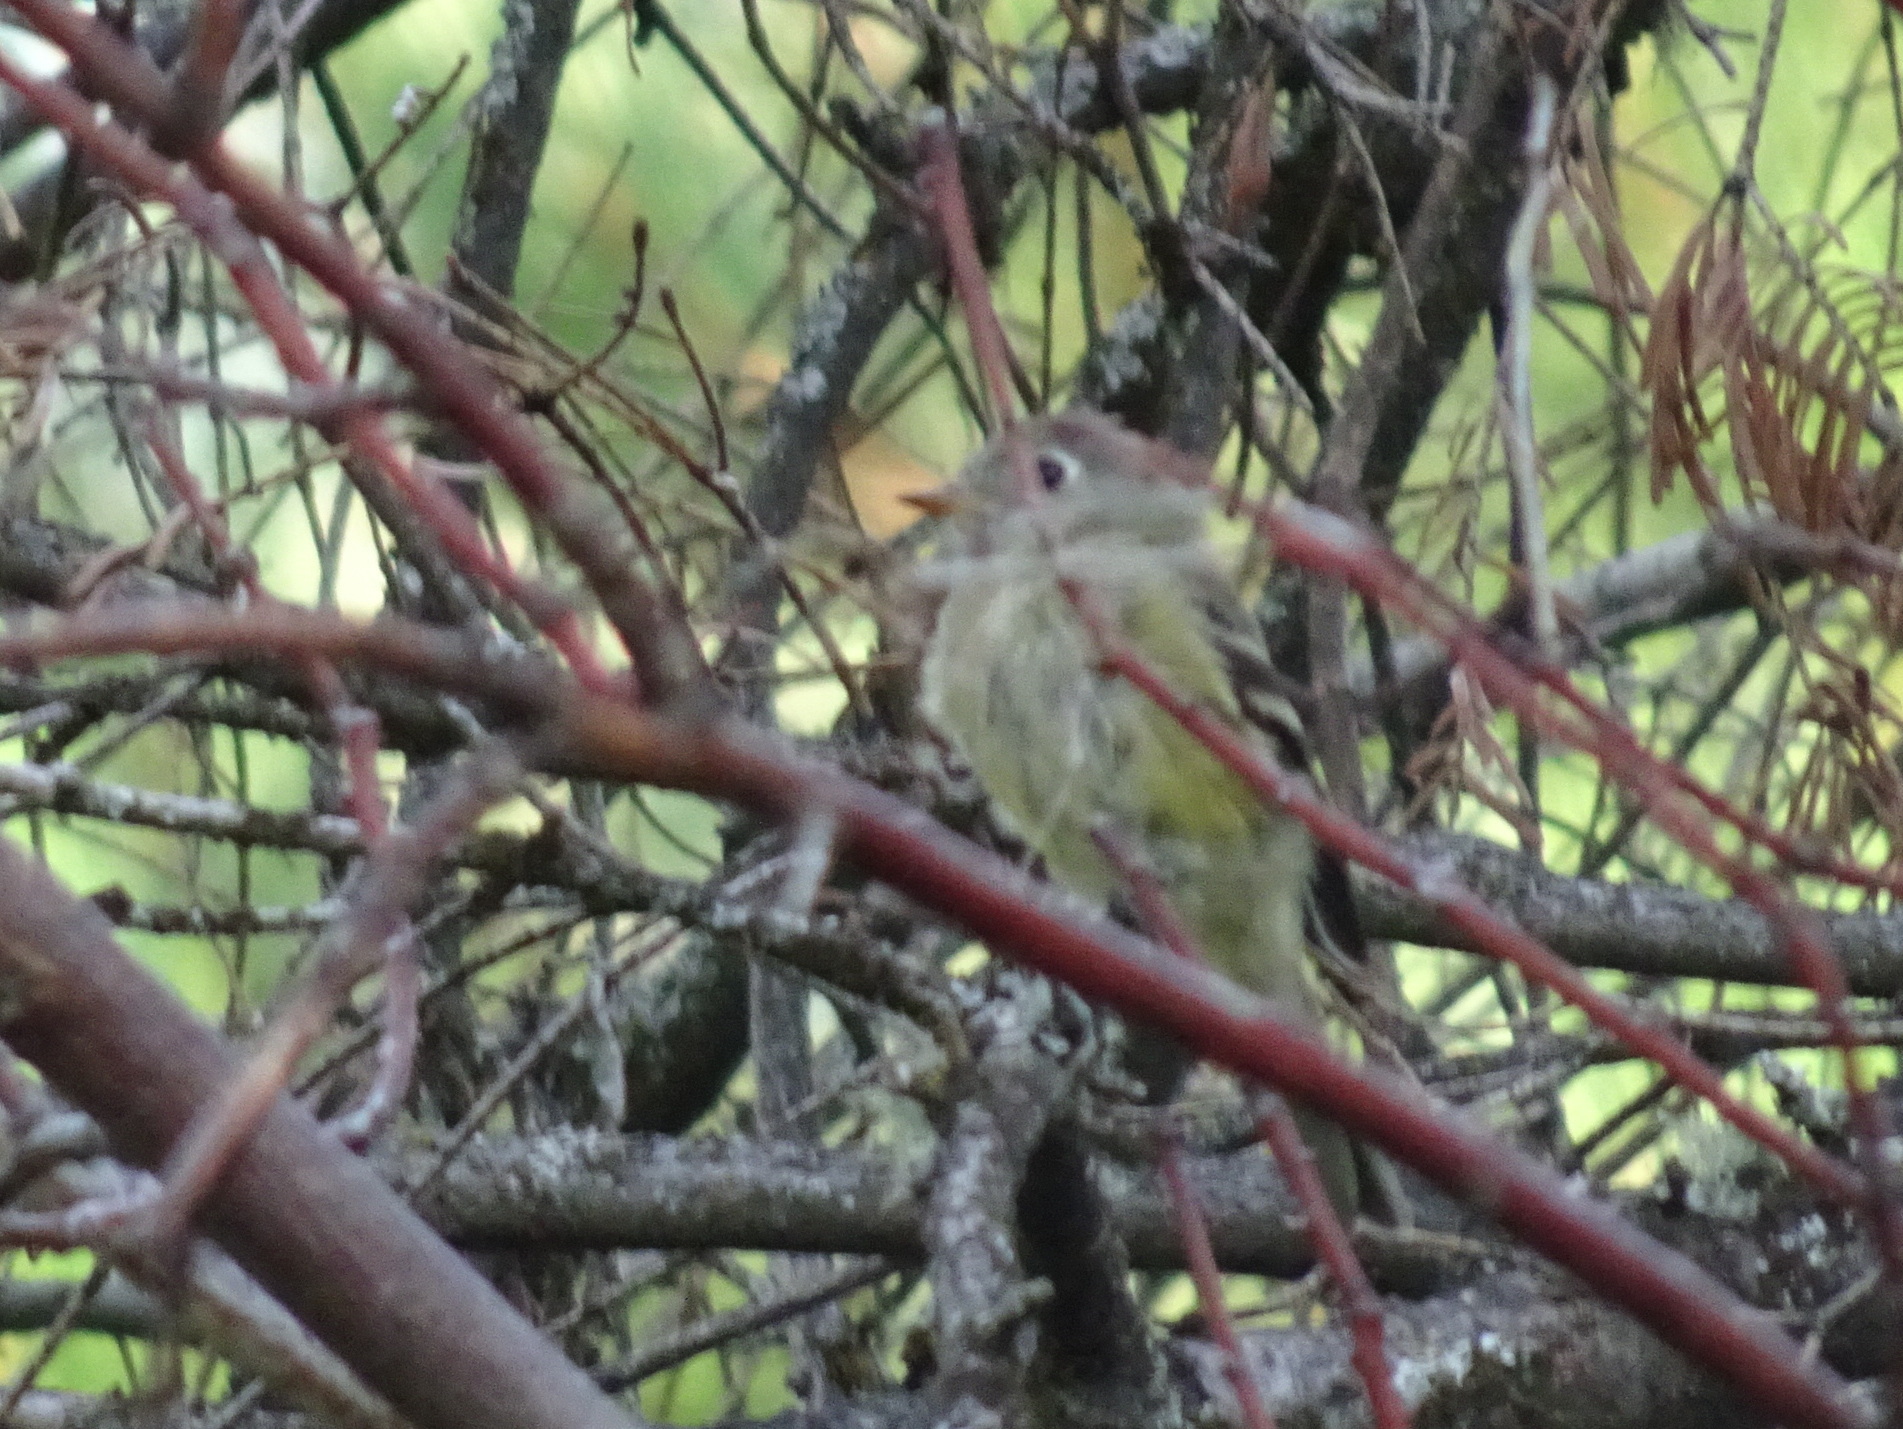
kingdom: Animalia
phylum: Chordata
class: Aves
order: Passeriformes
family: Tyrannidae
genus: Empidonax
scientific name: Empidonax difficilis
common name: Pacific-slope flycatcher
